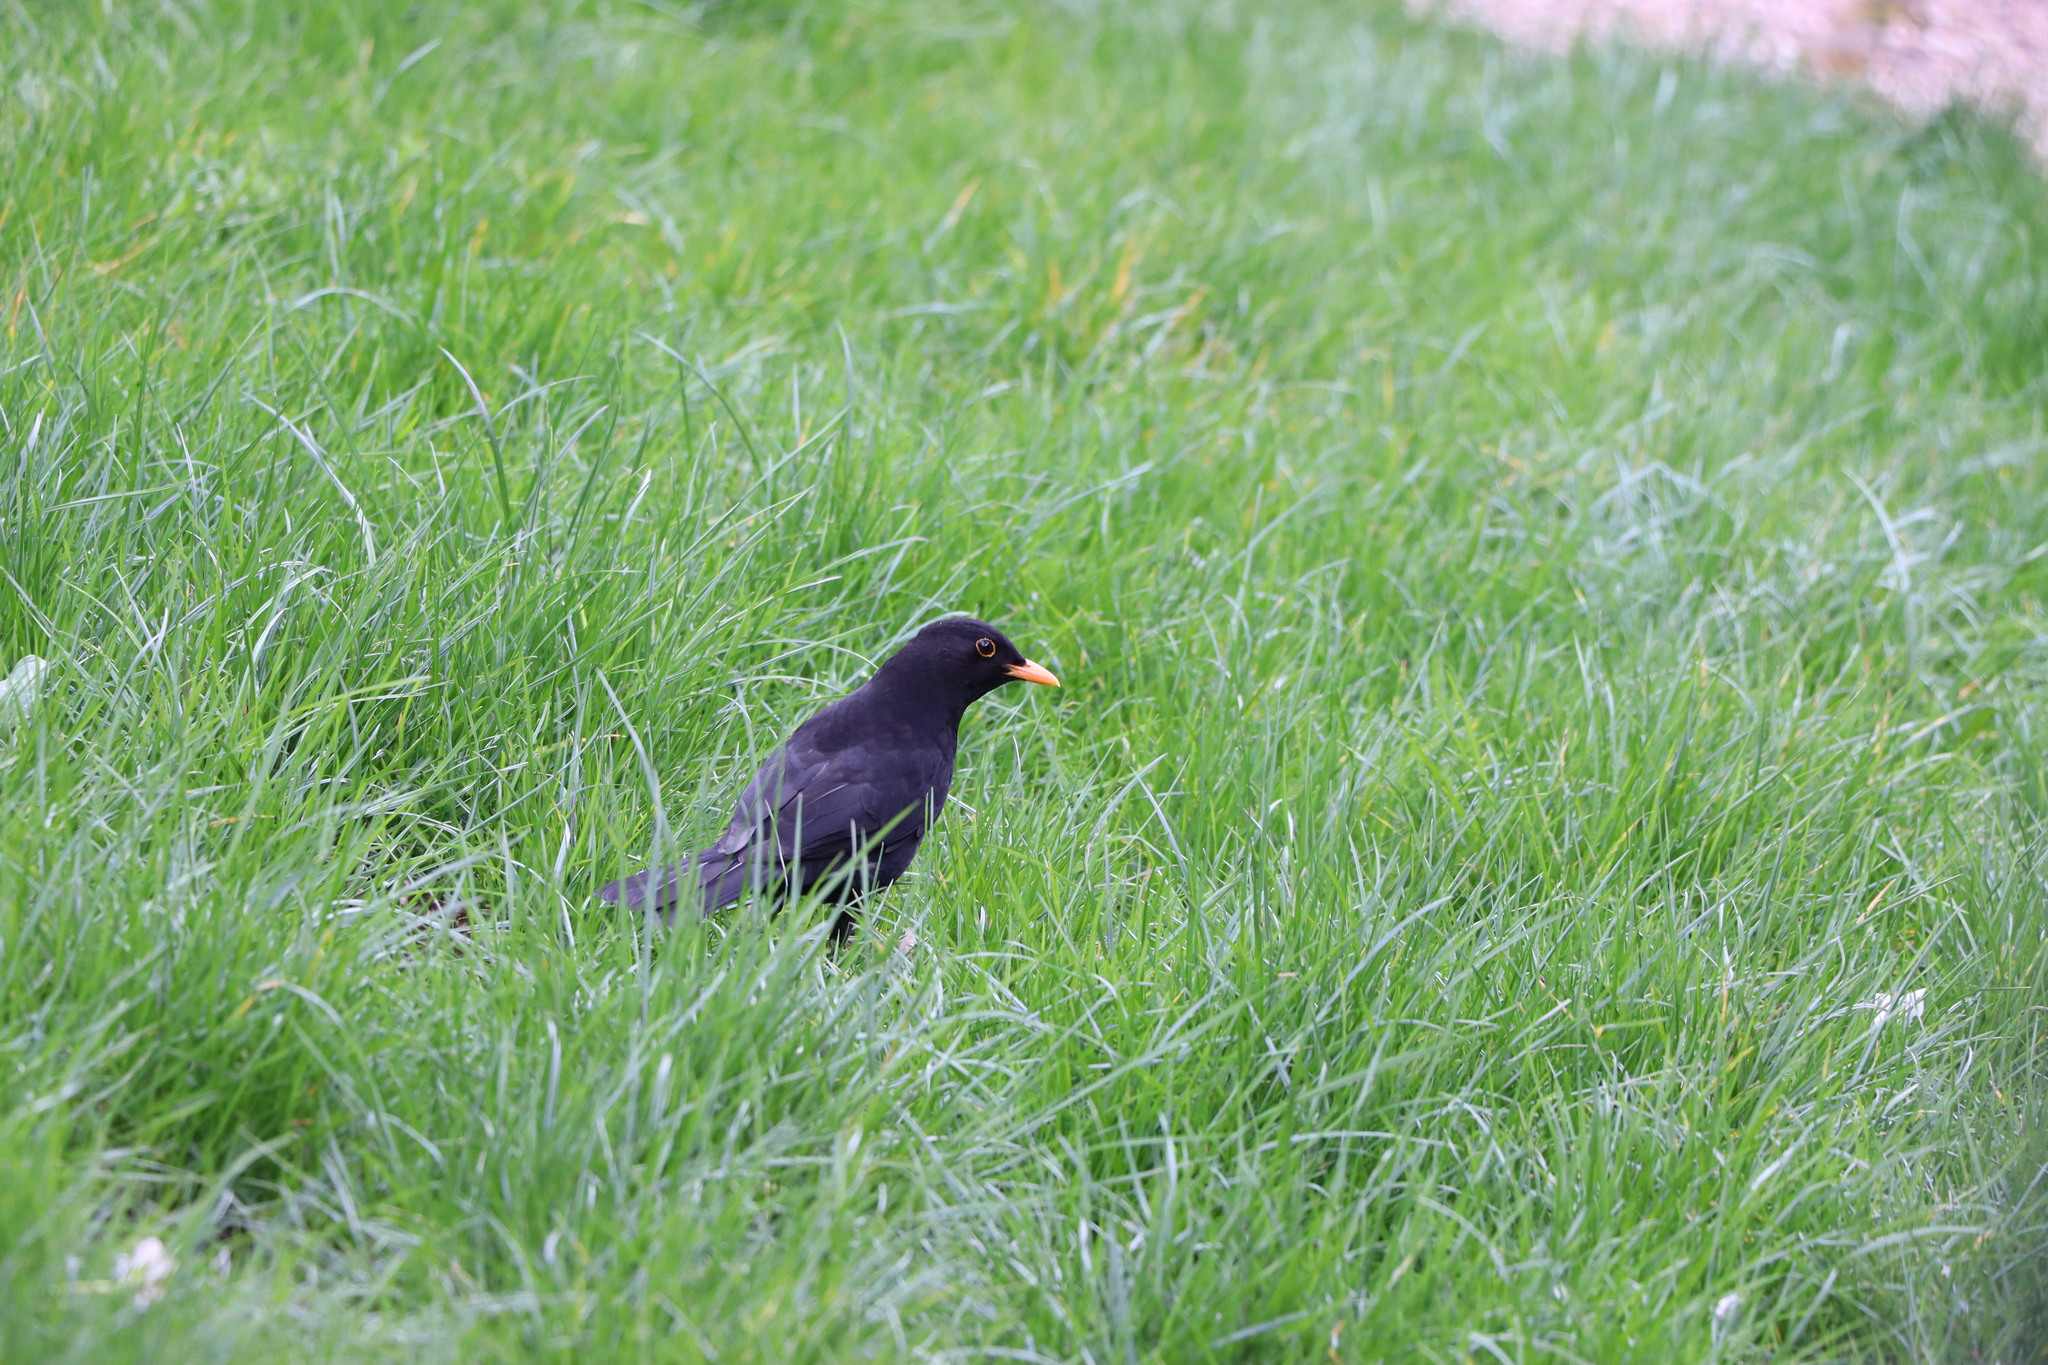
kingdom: Animalia
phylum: Chordata
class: Aves
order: Passeriformes
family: Turdidae
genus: Turdus
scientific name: Turdus merula
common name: Common blackbird
